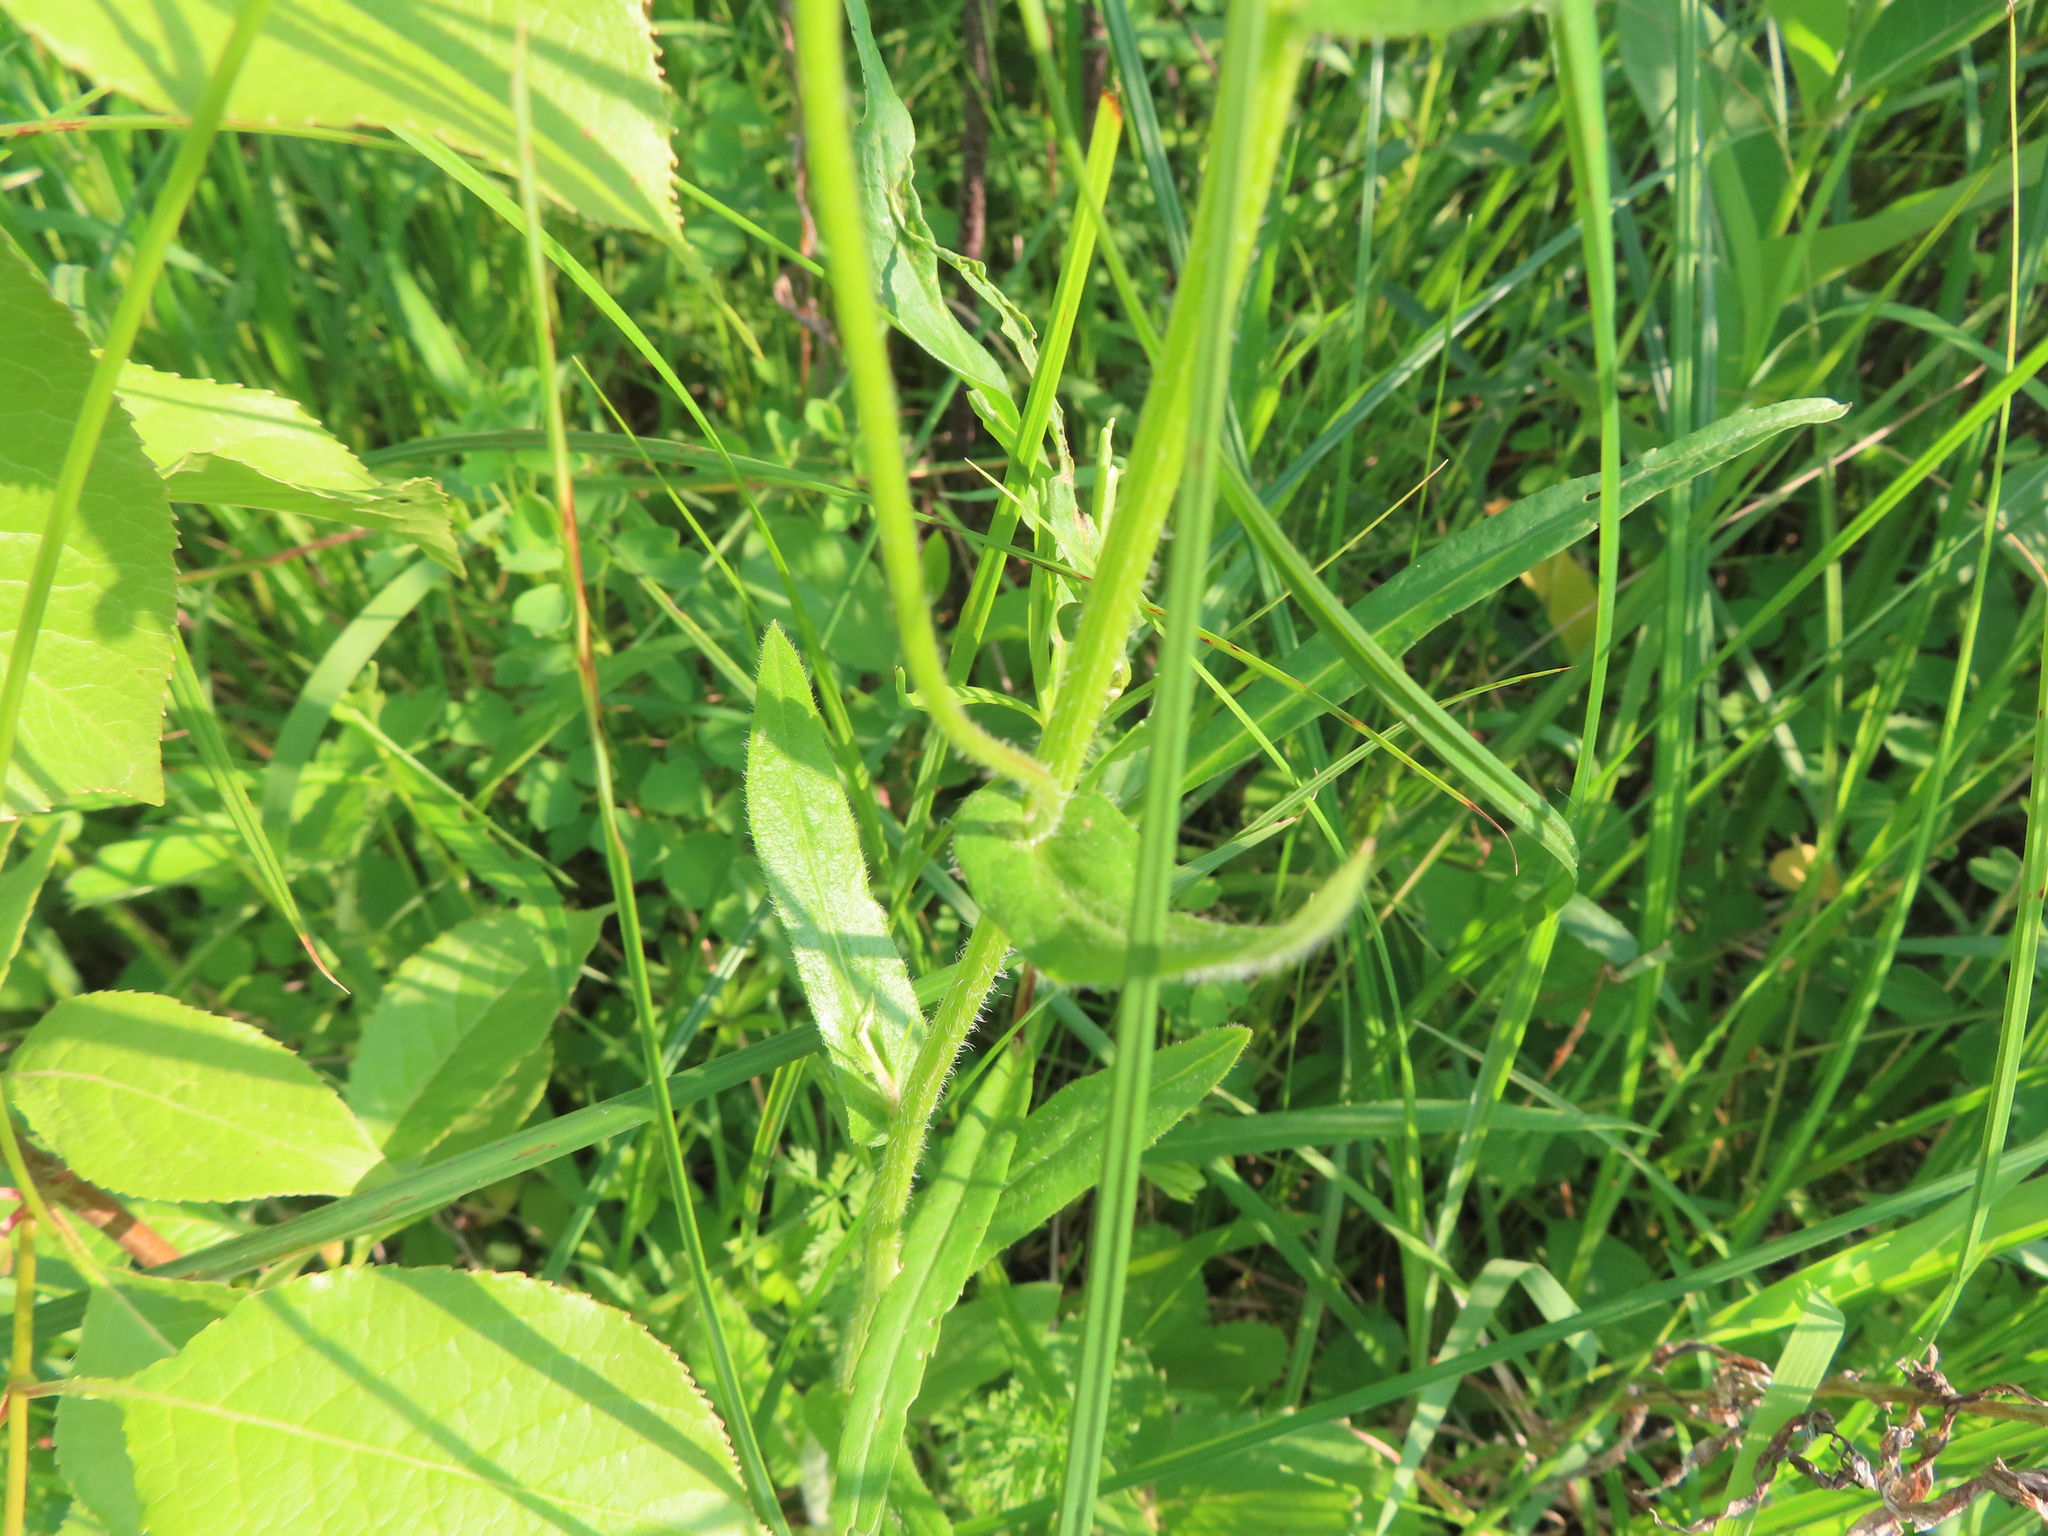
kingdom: Plantae
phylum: Tracheophyta
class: Magnoliopsida
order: Asterales
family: Asteraceae
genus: Erigeron
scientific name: Erigeron philadelphicus
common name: Robin's-plantain
